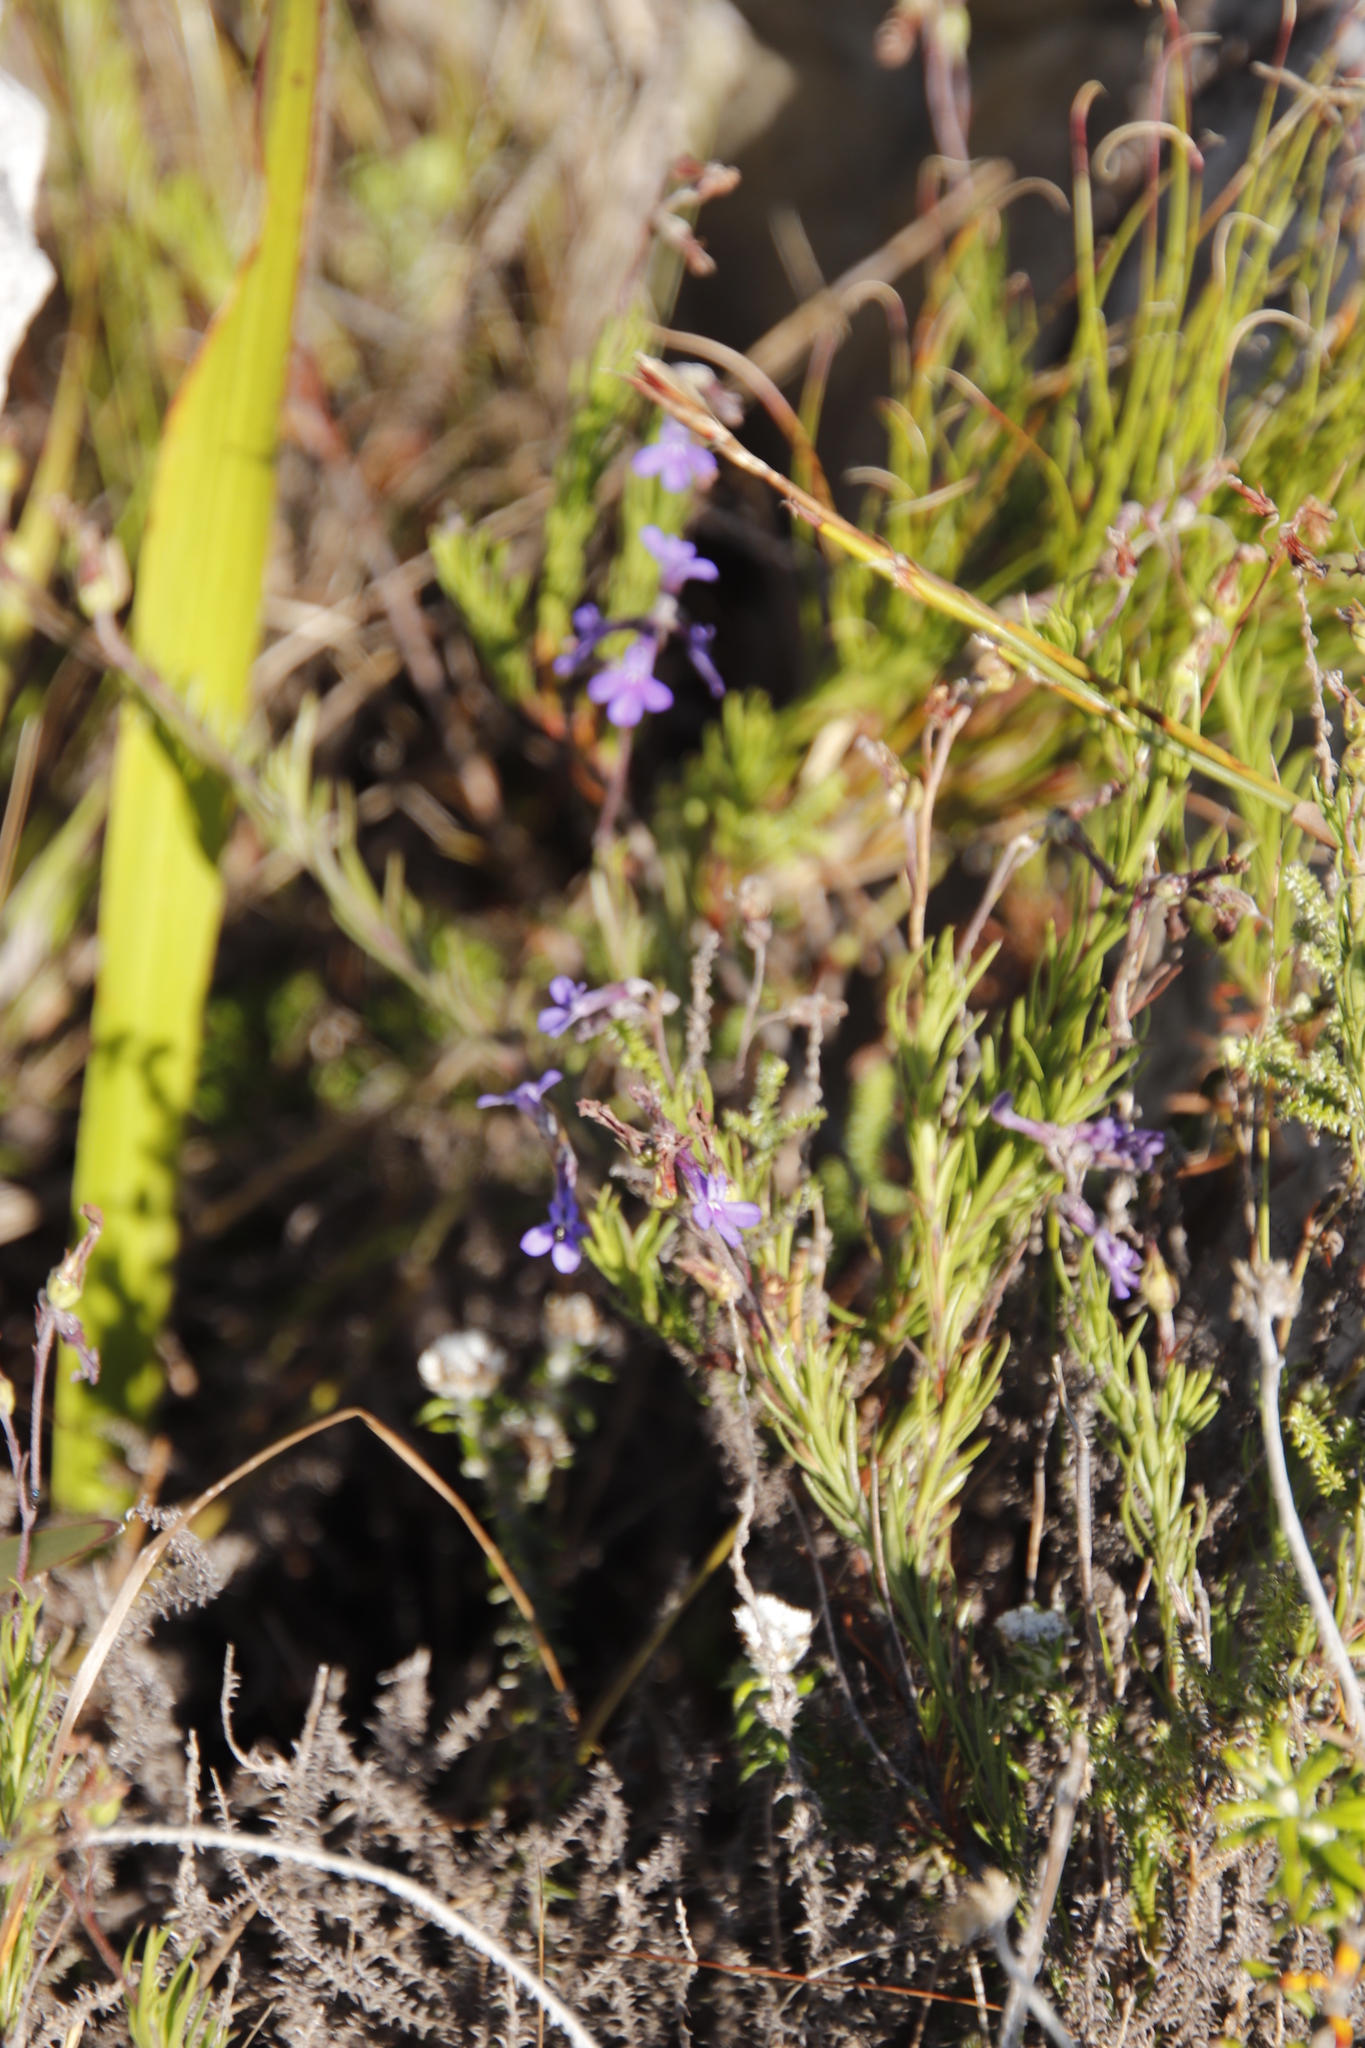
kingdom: Plantae
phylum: Tracheophyta
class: Magnoliopsida
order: Asterales
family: Campanulaceae
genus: Lobelia
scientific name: Lobelia pinifolia
